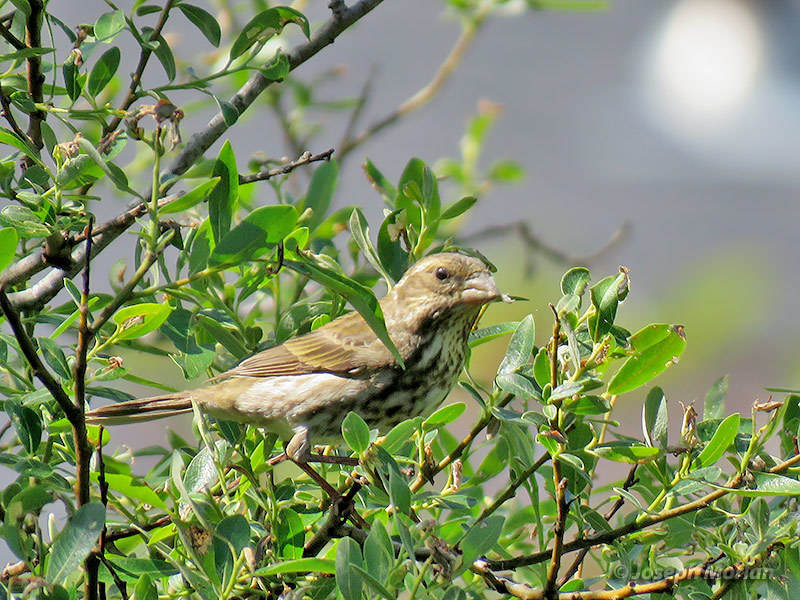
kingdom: Animalia
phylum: Chordata
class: Aves
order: Passeriformes
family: Fringillidae
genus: Haemorhous
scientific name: Haemorhous purpureus
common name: Purple finch
